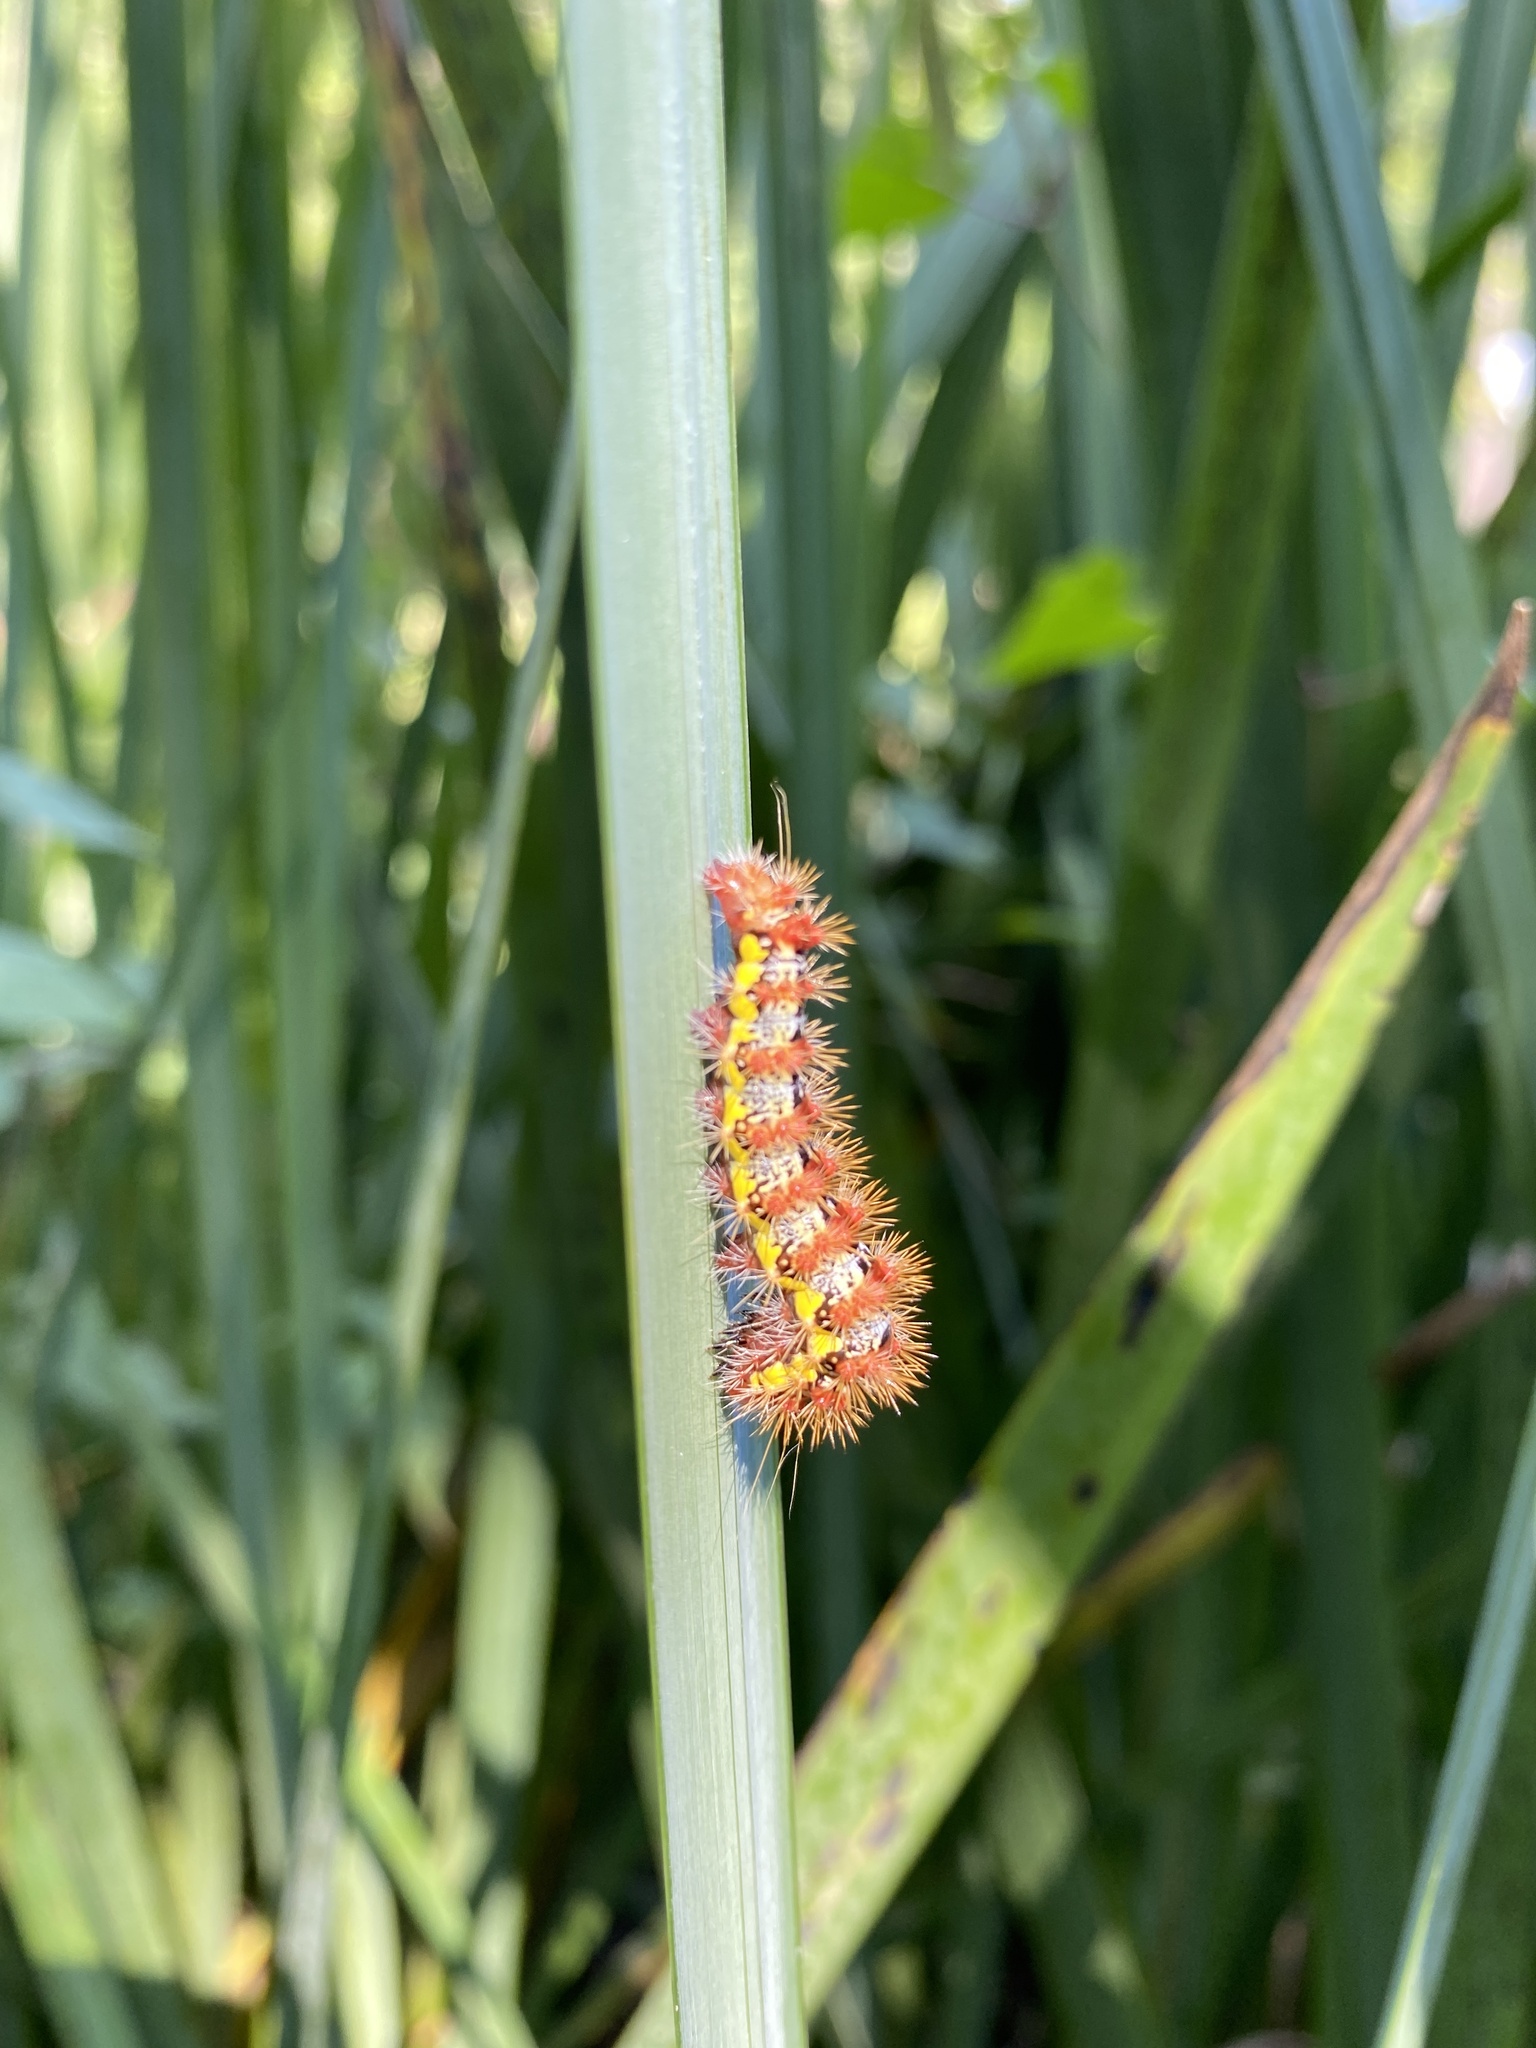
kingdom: Animalia
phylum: Arthropoda
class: Insecta
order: Lepidoptera
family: Noctuidae
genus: Acronicta
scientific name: Acronicta oblinita
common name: Smeared dagger
